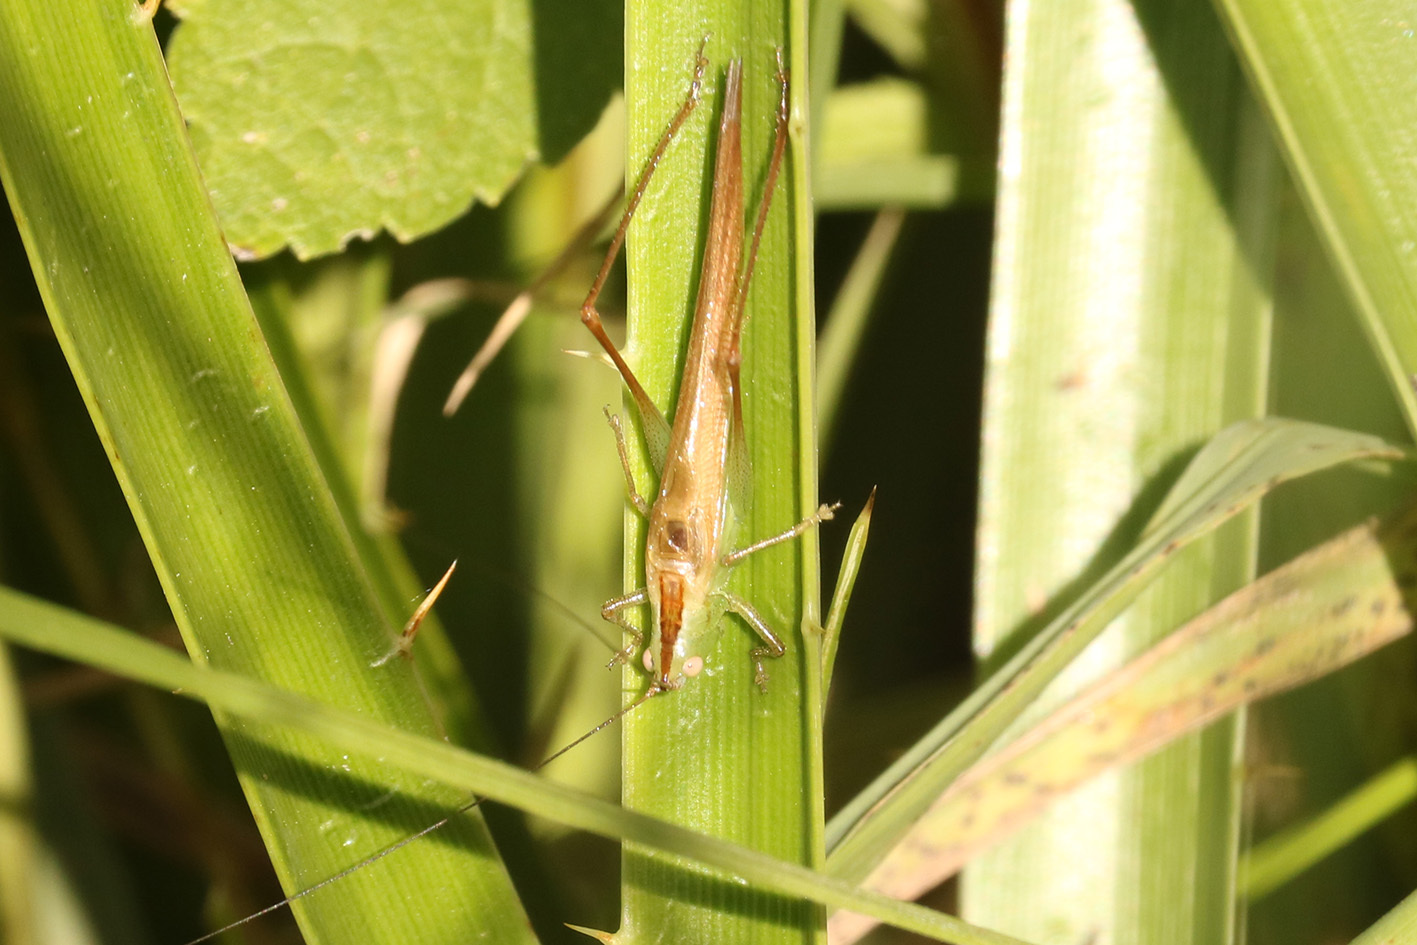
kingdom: Animalia
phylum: Arthropoda
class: Insecta
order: Orthoptera
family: Tettigoniidae
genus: Conocephalus
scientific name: Conocephalus longipes
